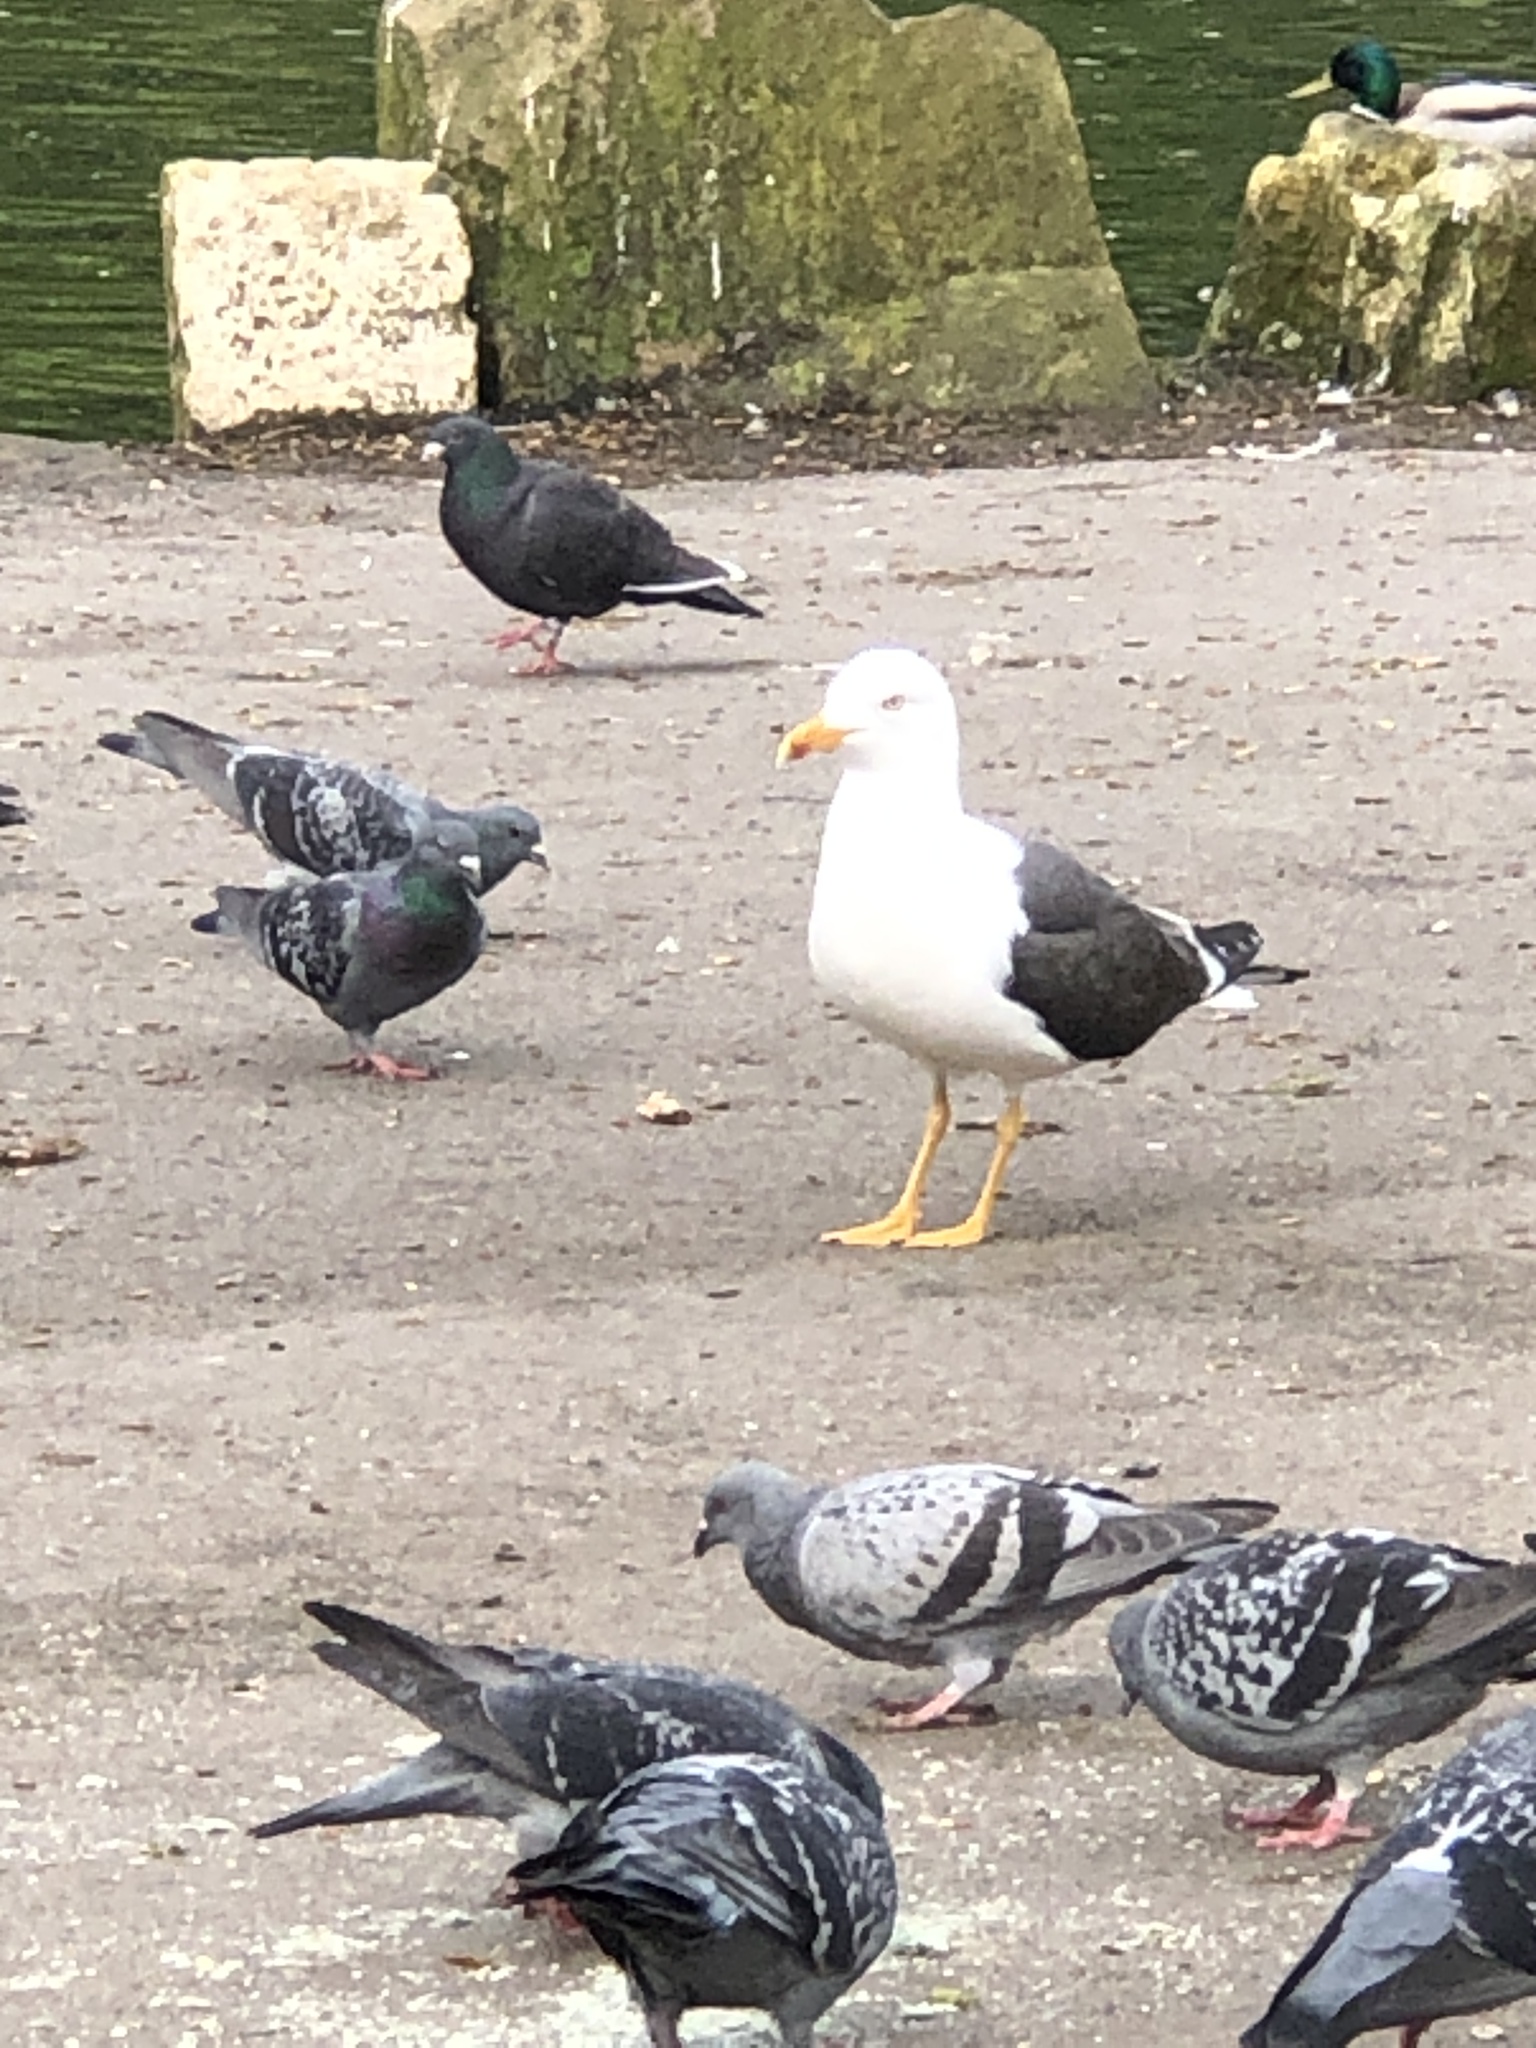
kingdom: Animalia
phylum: Chordata
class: Aves
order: Charadriiformes
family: Laridae
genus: Larus
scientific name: Larus fuscus
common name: Lesser black-backed gull
